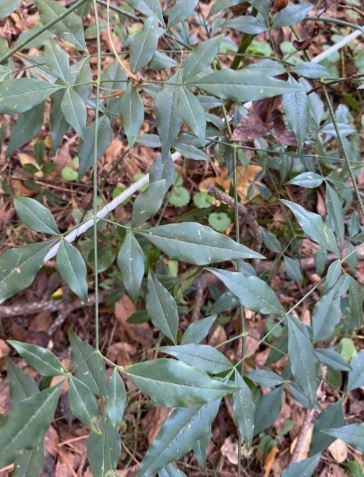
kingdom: Plantae
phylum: Tracheophyta
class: Magnoliopsida
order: Ranunculales
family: Berberidaceae
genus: Nandina
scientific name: Nandina domestica
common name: Sacred bamboo
